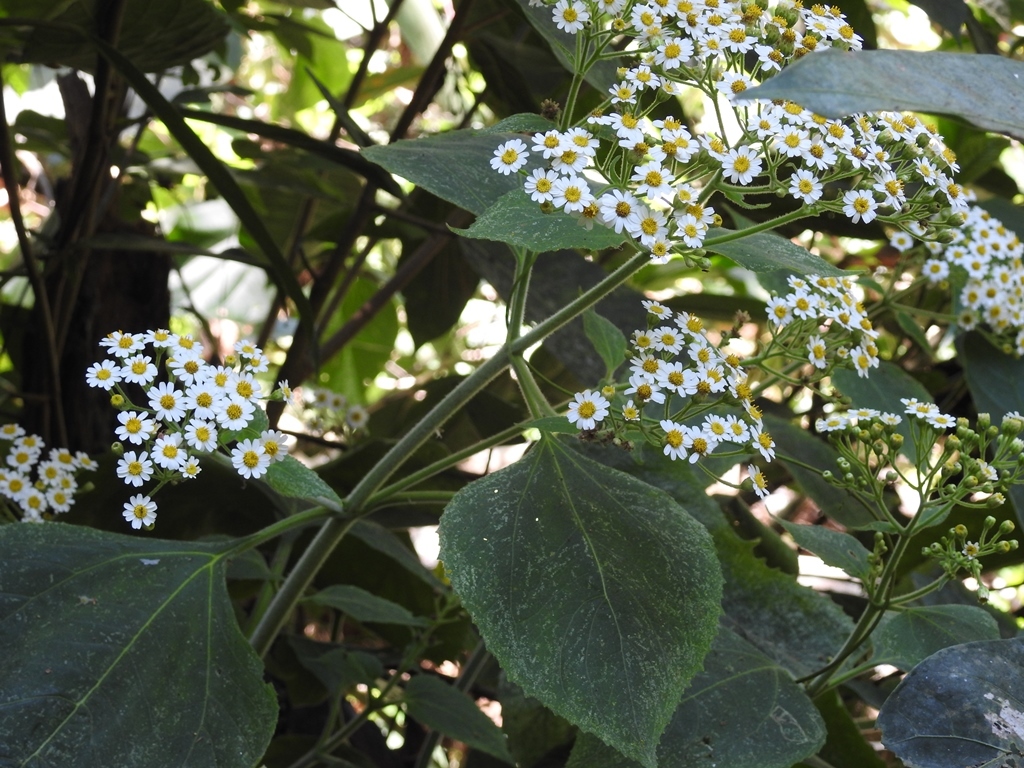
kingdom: Plantae
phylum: Tracheophyta
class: Magnoliopsida
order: Asterales
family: Asteraceae
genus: Schistocarpha
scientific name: Schistocarpha pedicellata
